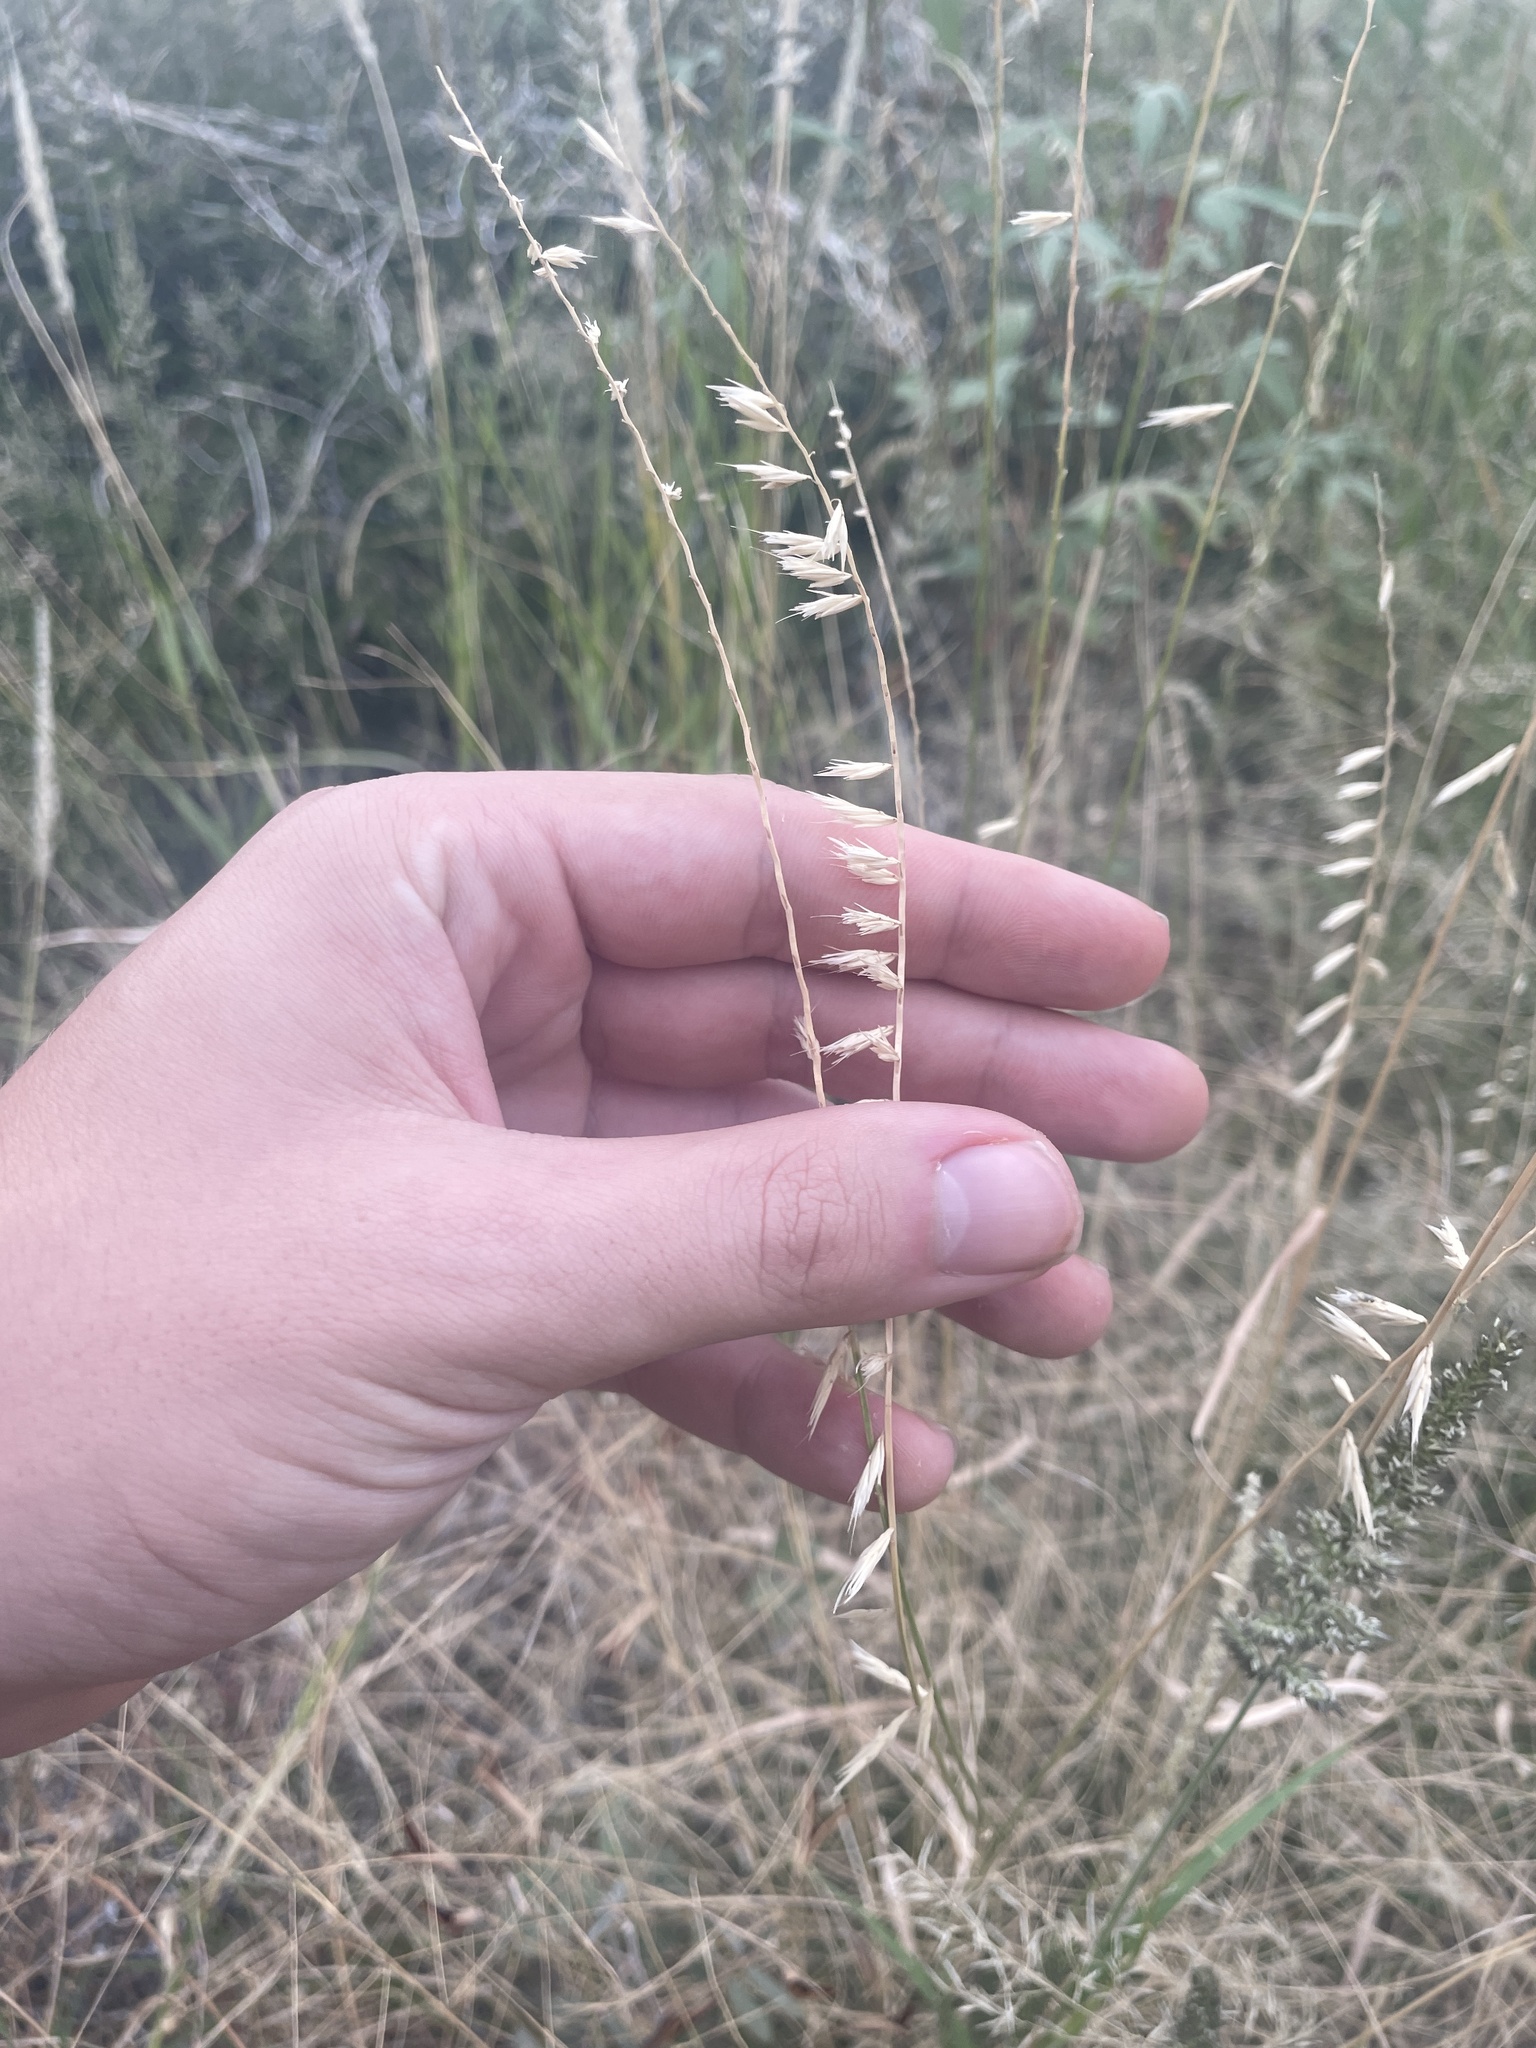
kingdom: Plantae
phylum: Tracheophyta
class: Liliopsida
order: Poales
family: Poaceae
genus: Bouteloua
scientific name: Bouteloua curtipendula
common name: Side-oats grama
